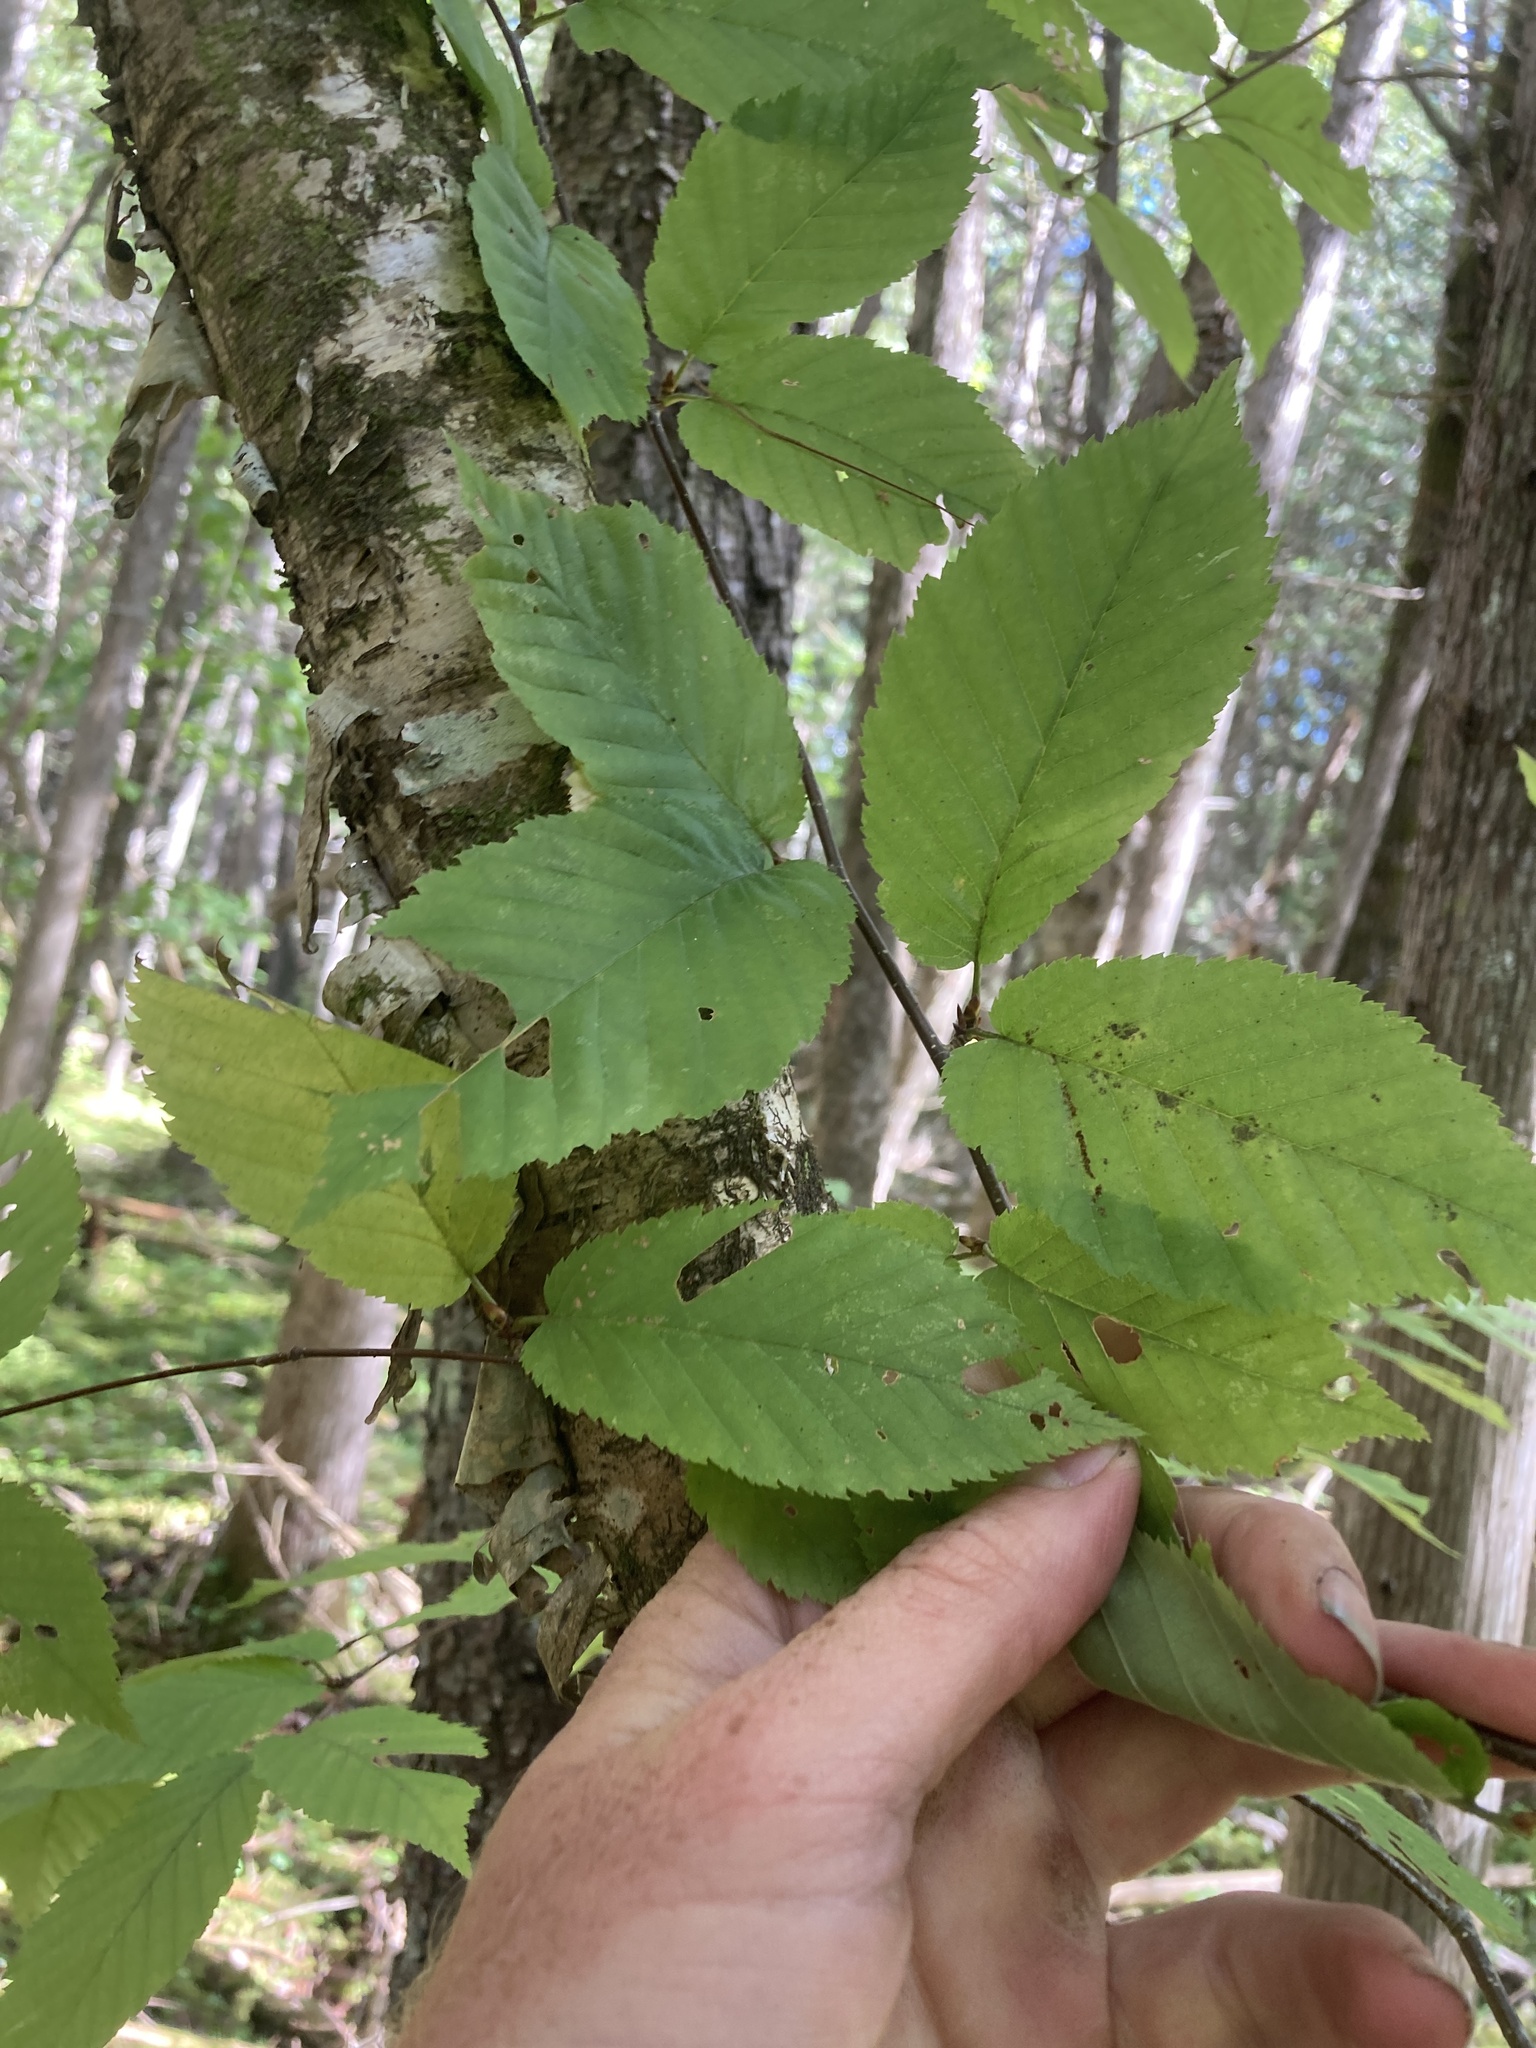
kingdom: Plantae
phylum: Tracheophyta
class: Magnoliopsida
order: Fagales
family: Betulaceae
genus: Betula
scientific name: Betula alleghaniensis
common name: Yellow birch
